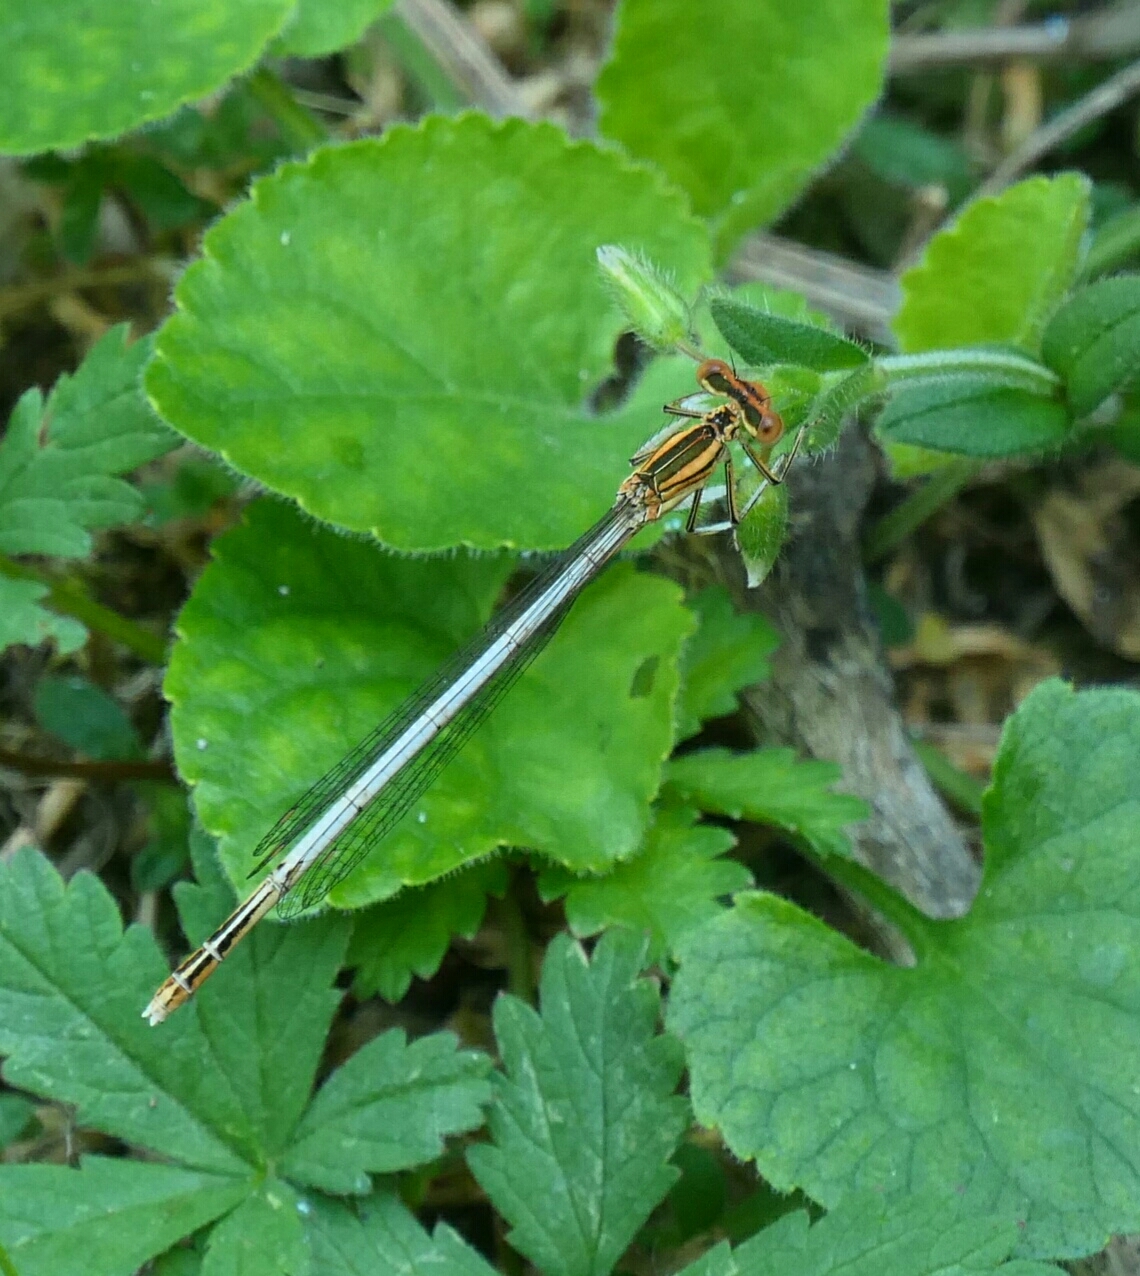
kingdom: Animalia
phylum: Arthropoda
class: Insecta
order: Odonata
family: Platycnemididae
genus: Platycnemis
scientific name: Platycnemis latipes
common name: White featherleg
